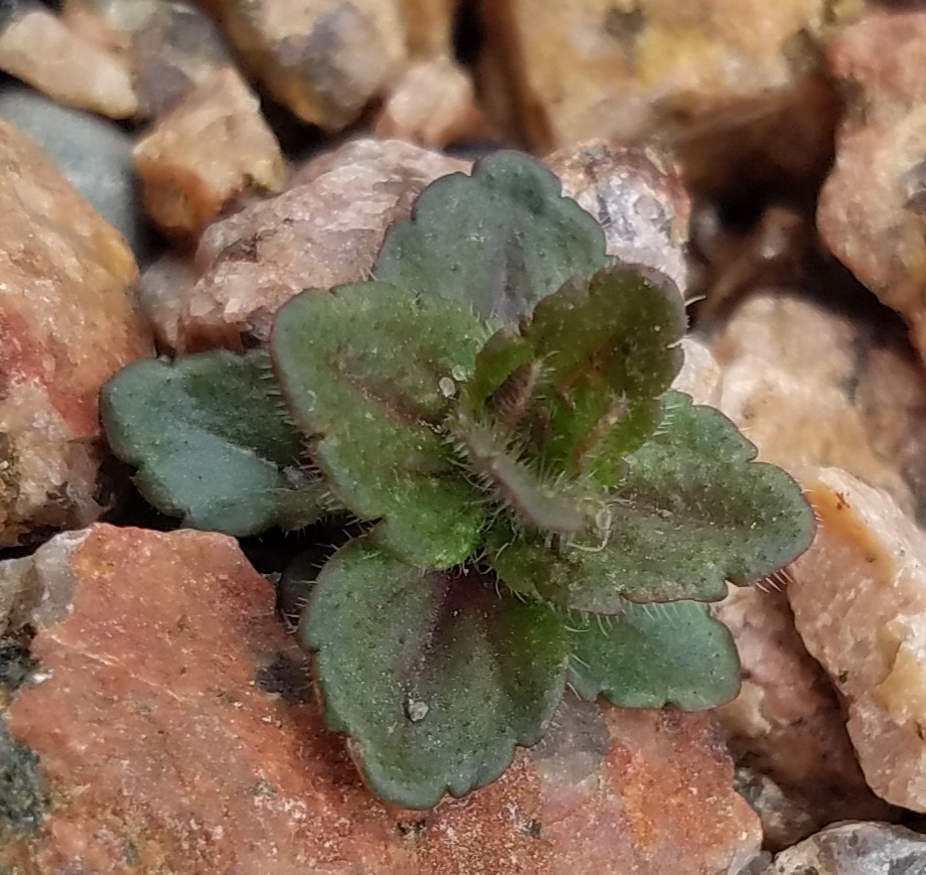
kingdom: Plantae
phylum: Tracheophyta
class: Magnoliopsida
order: Lamiales
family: Plantaginaceae
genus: Veronica
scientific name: Veronica arvensis
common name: Corn speedwell
